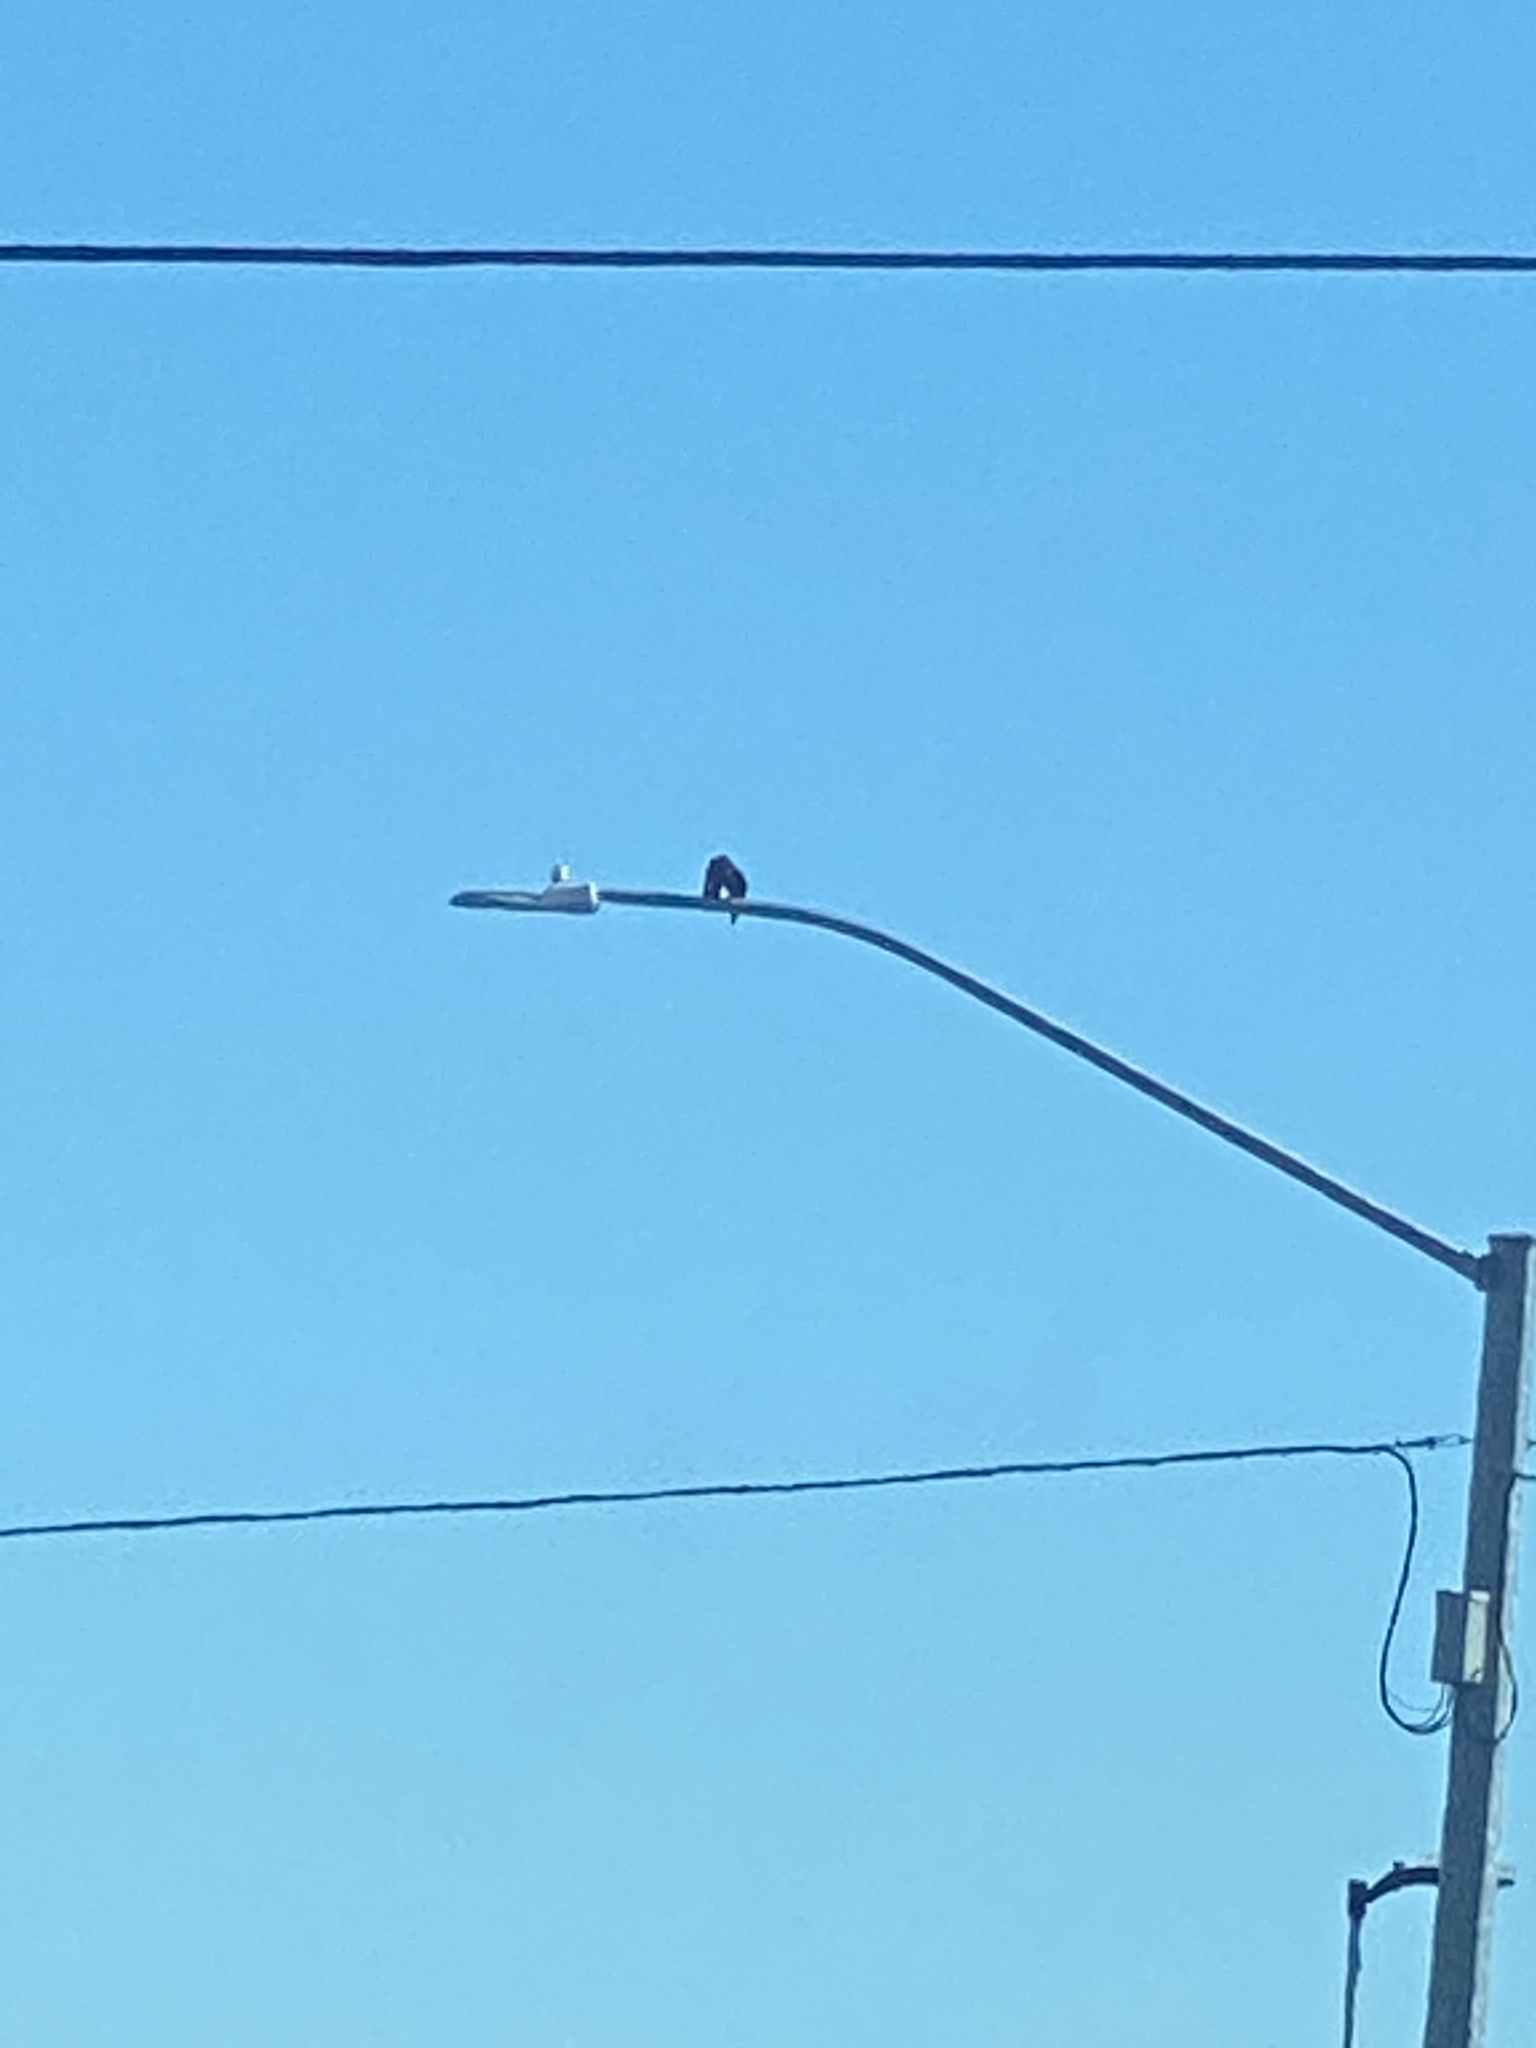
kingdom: Animalia
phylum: Chordata
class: Aves
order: Passeriformes
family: Corvidae
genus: Corvus
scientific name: Corvus brachyrhynchos
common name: American crow
